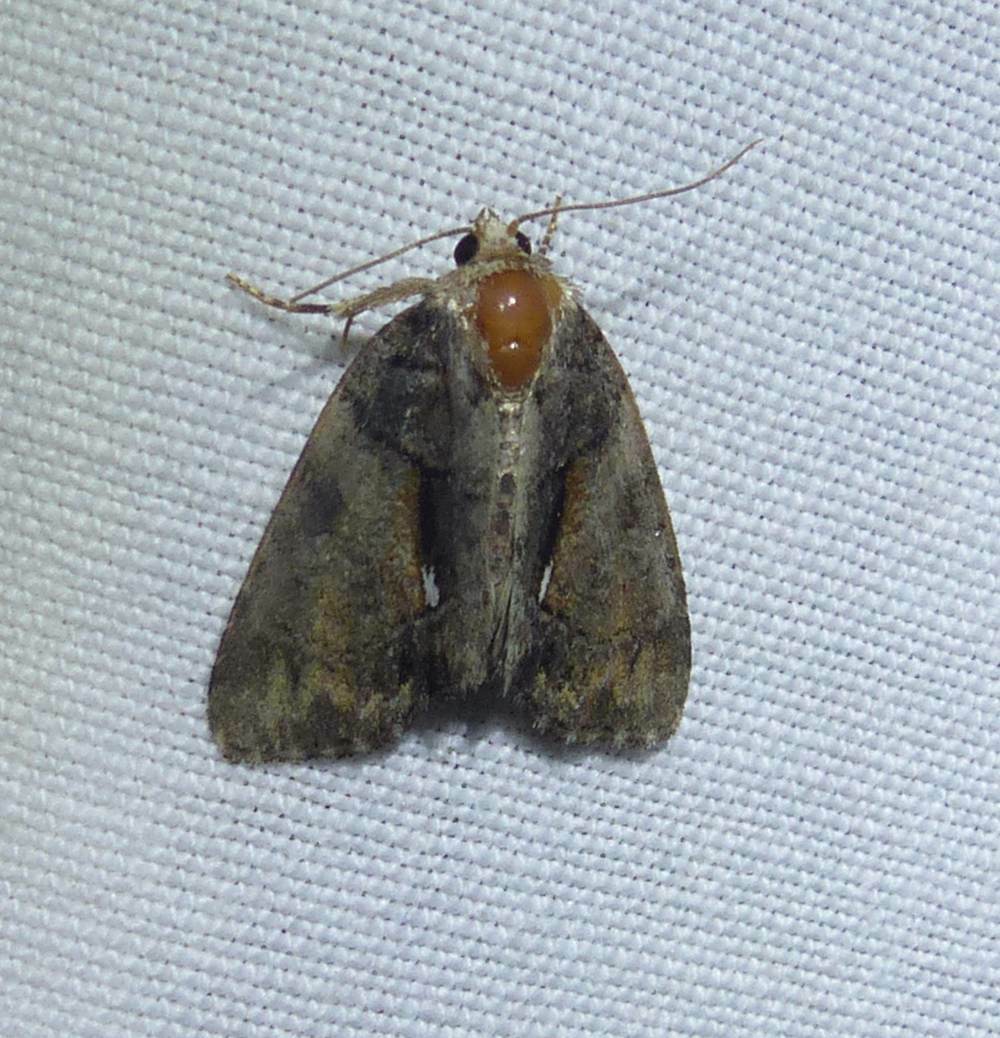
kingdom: Animalia
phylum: Arthropoda
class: Insecta
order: Lepidoptera
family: Noctuidae
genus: Chytonix
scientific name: Chytonix palliatricula
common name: Cloaked marvel
